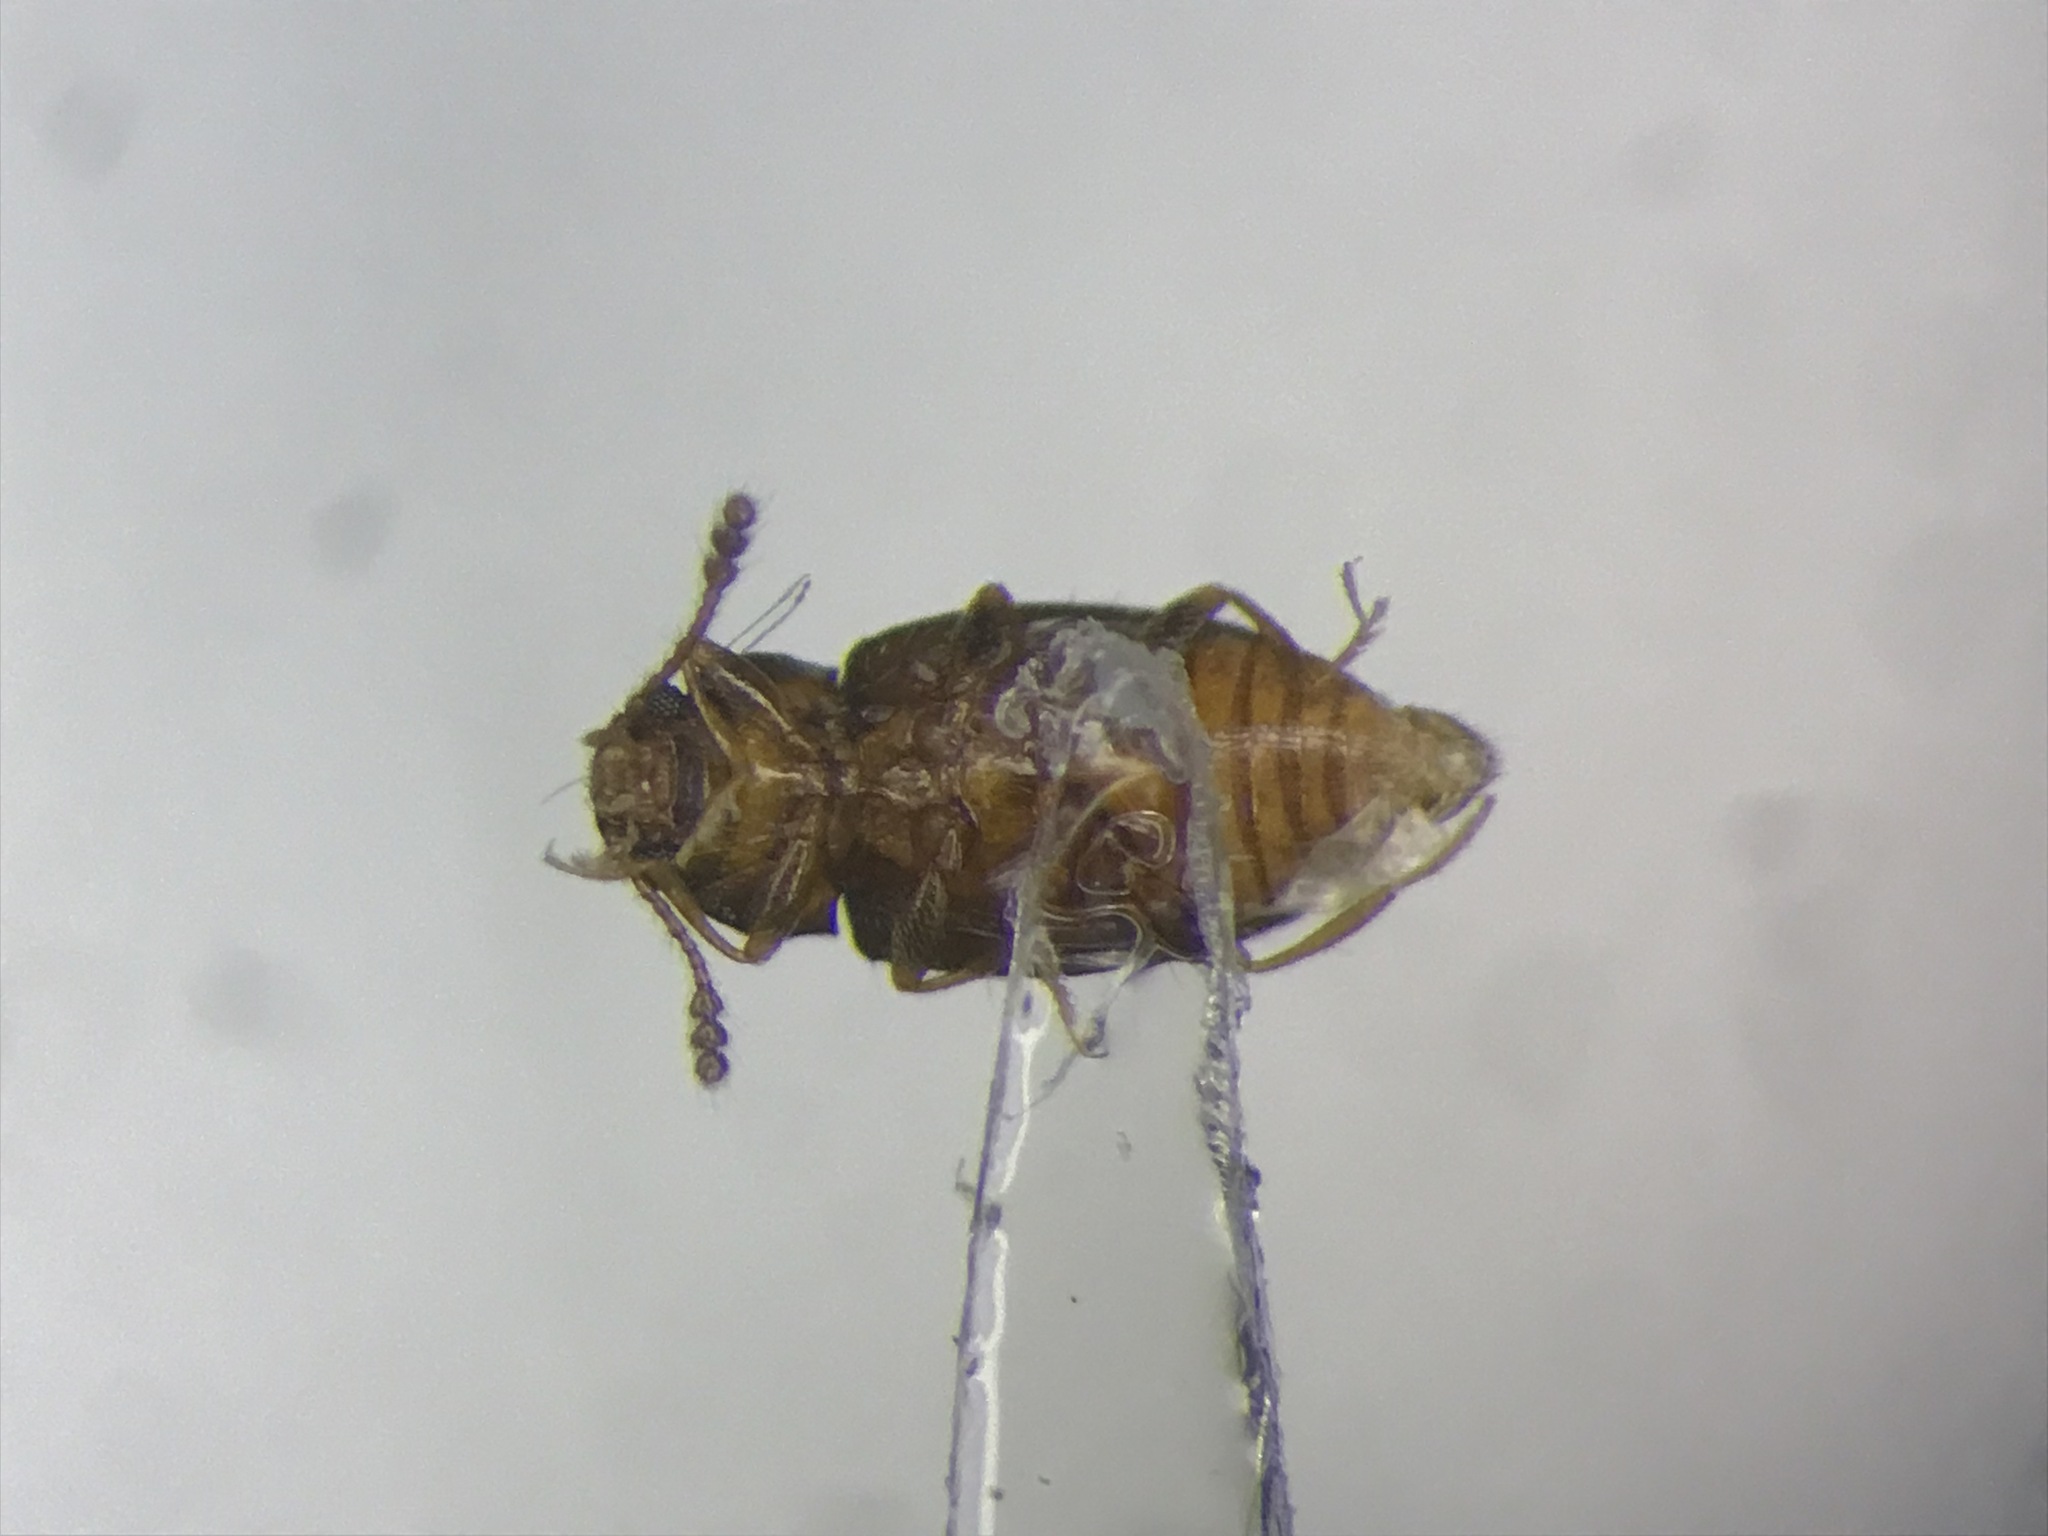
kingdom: Animalia
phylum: Arthropoda
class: Insecta
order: Coleoptera
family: Erotylidae
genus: Toramus
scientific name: Toramus pulchellus
